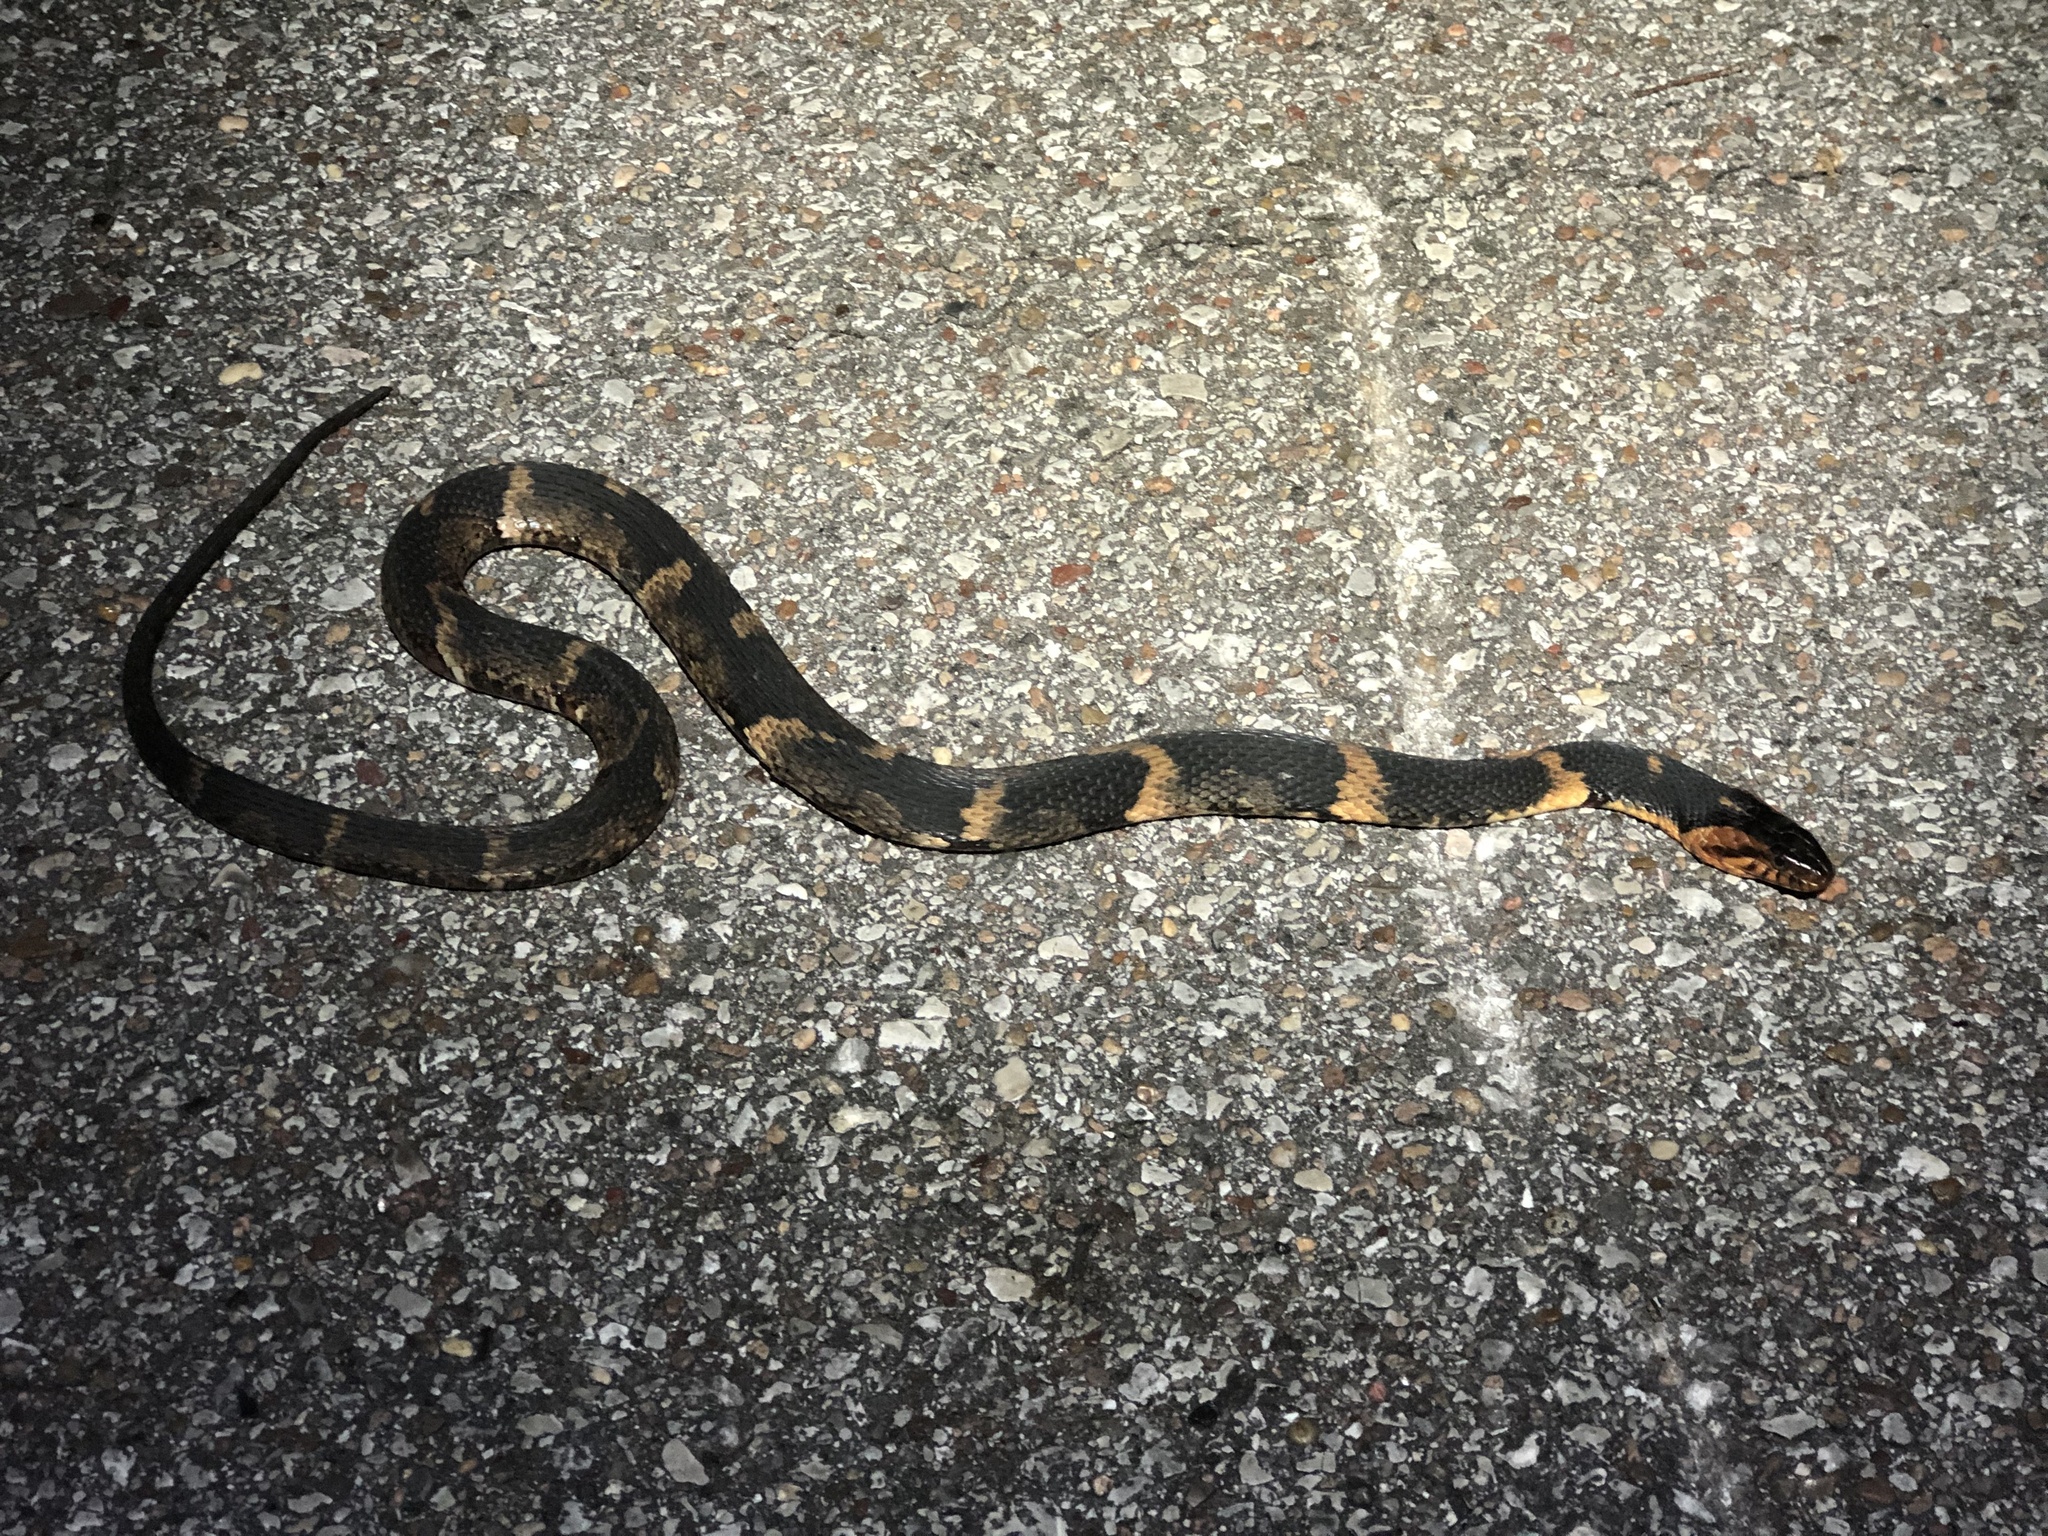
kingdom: Animalia
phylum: Chordata
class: Squamata
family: Colubridae
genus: Nerodia
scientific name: Nerodia fasciata
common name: Southern water snake
